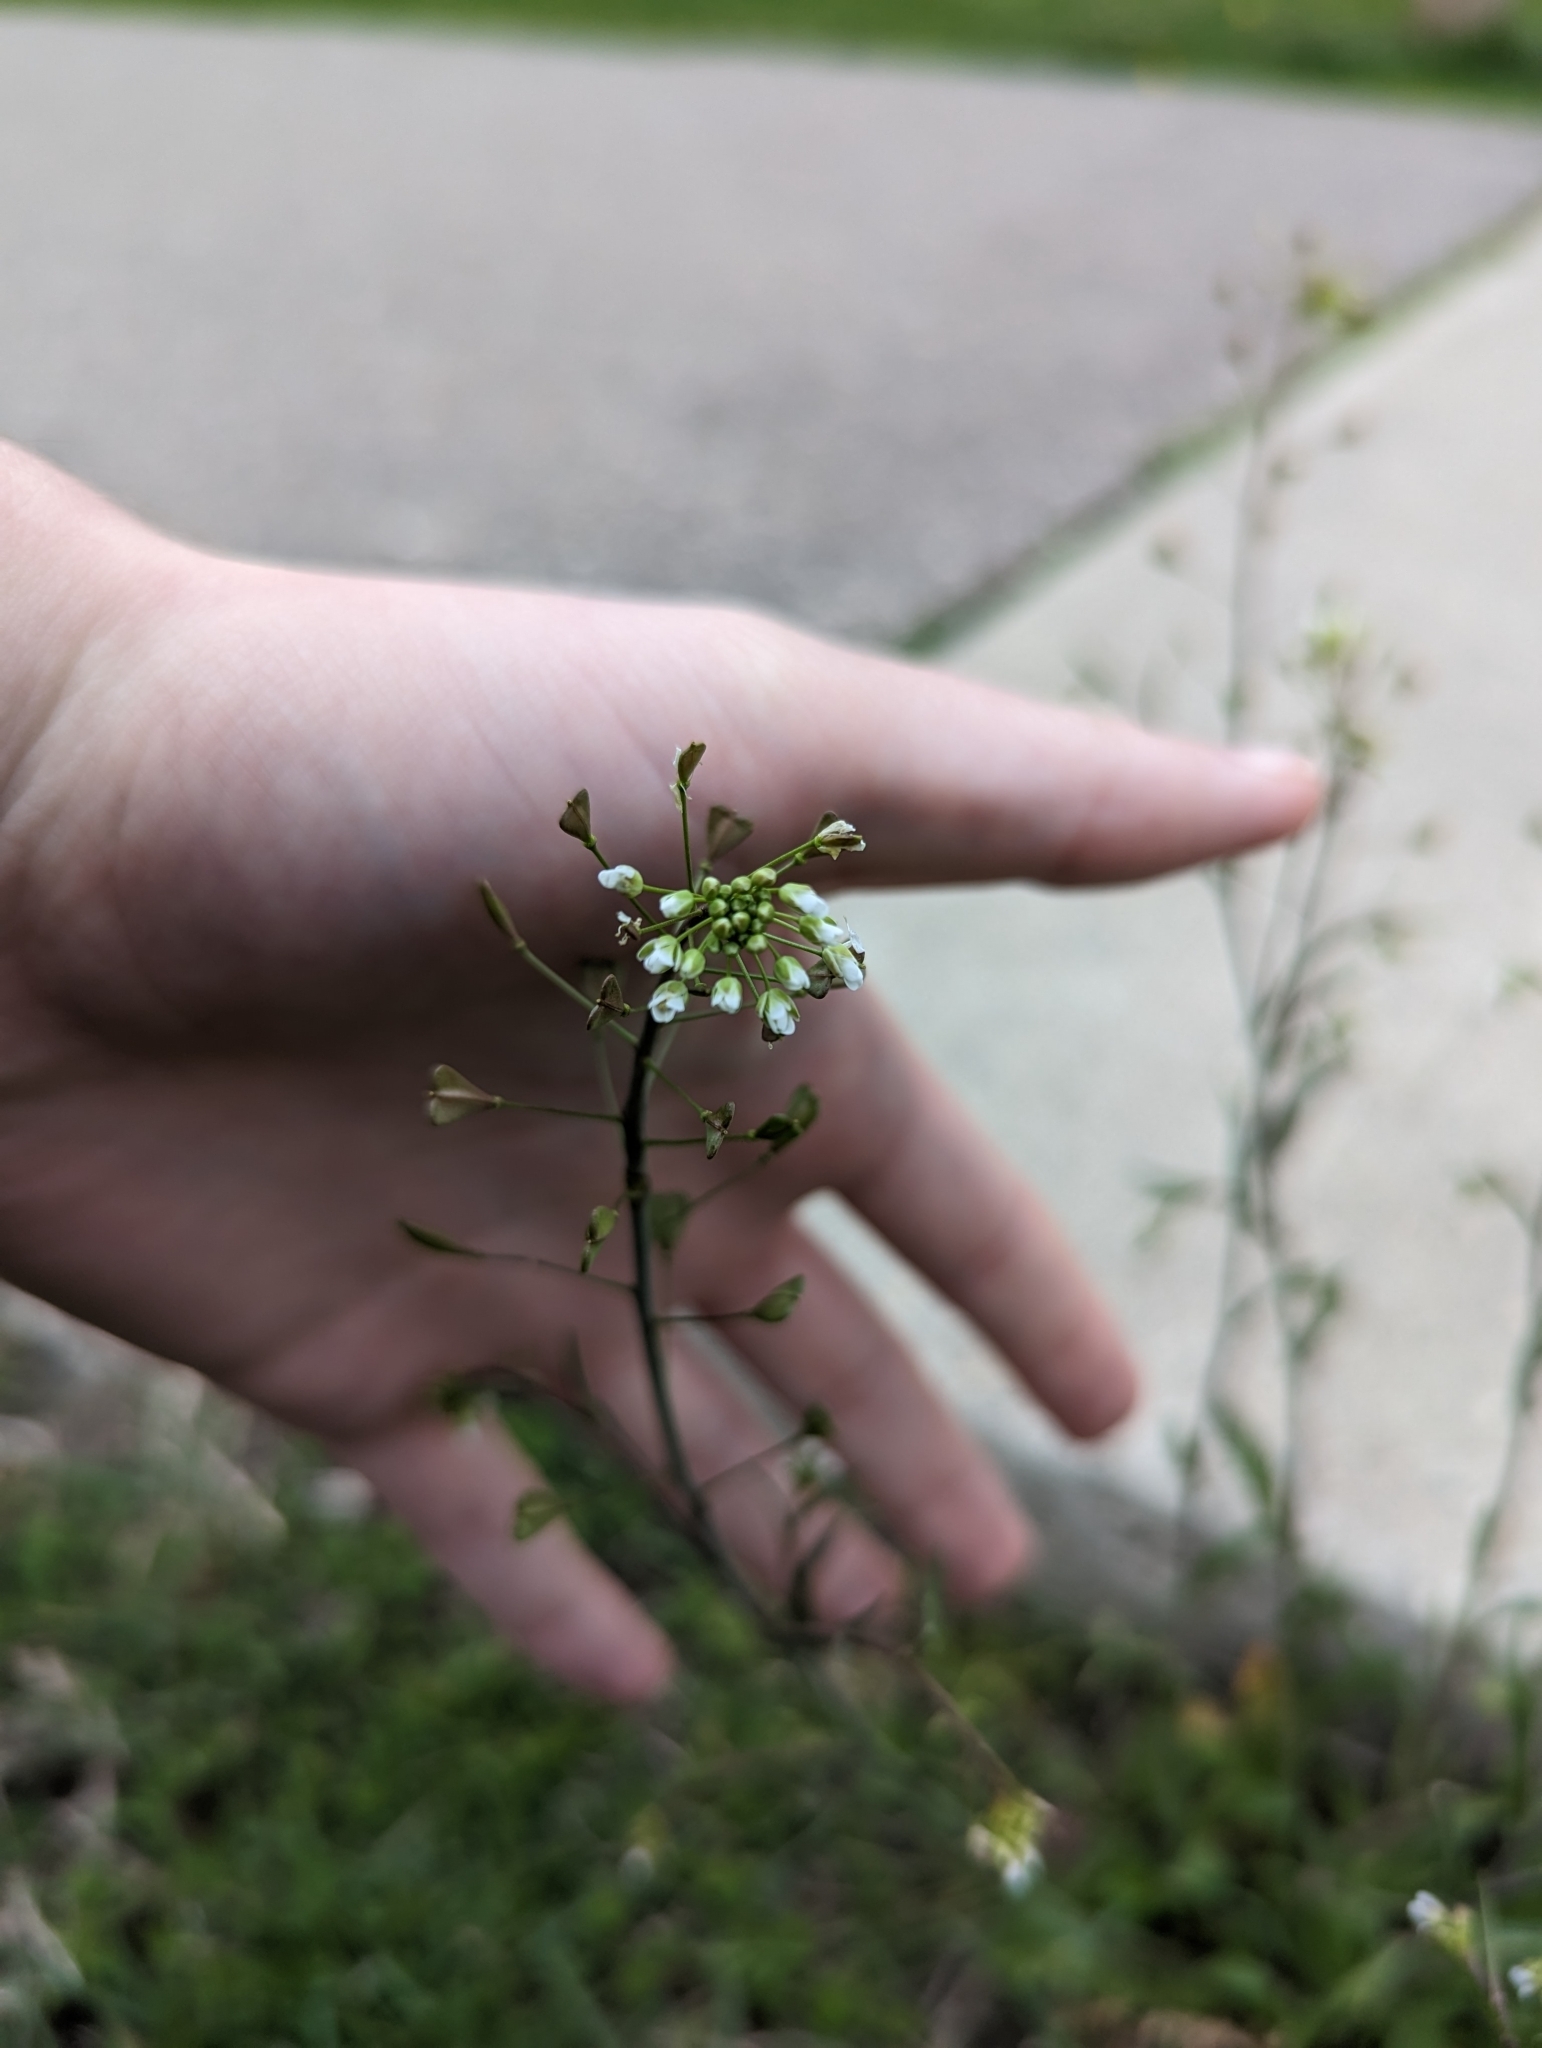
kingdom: Plantae
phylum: Tracheophyta
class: Magnoliopsida
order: Brassicales
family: Brassicaceae
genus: Capsella
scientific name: Capsella bursa-pastoris
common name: Shepherd's purse
